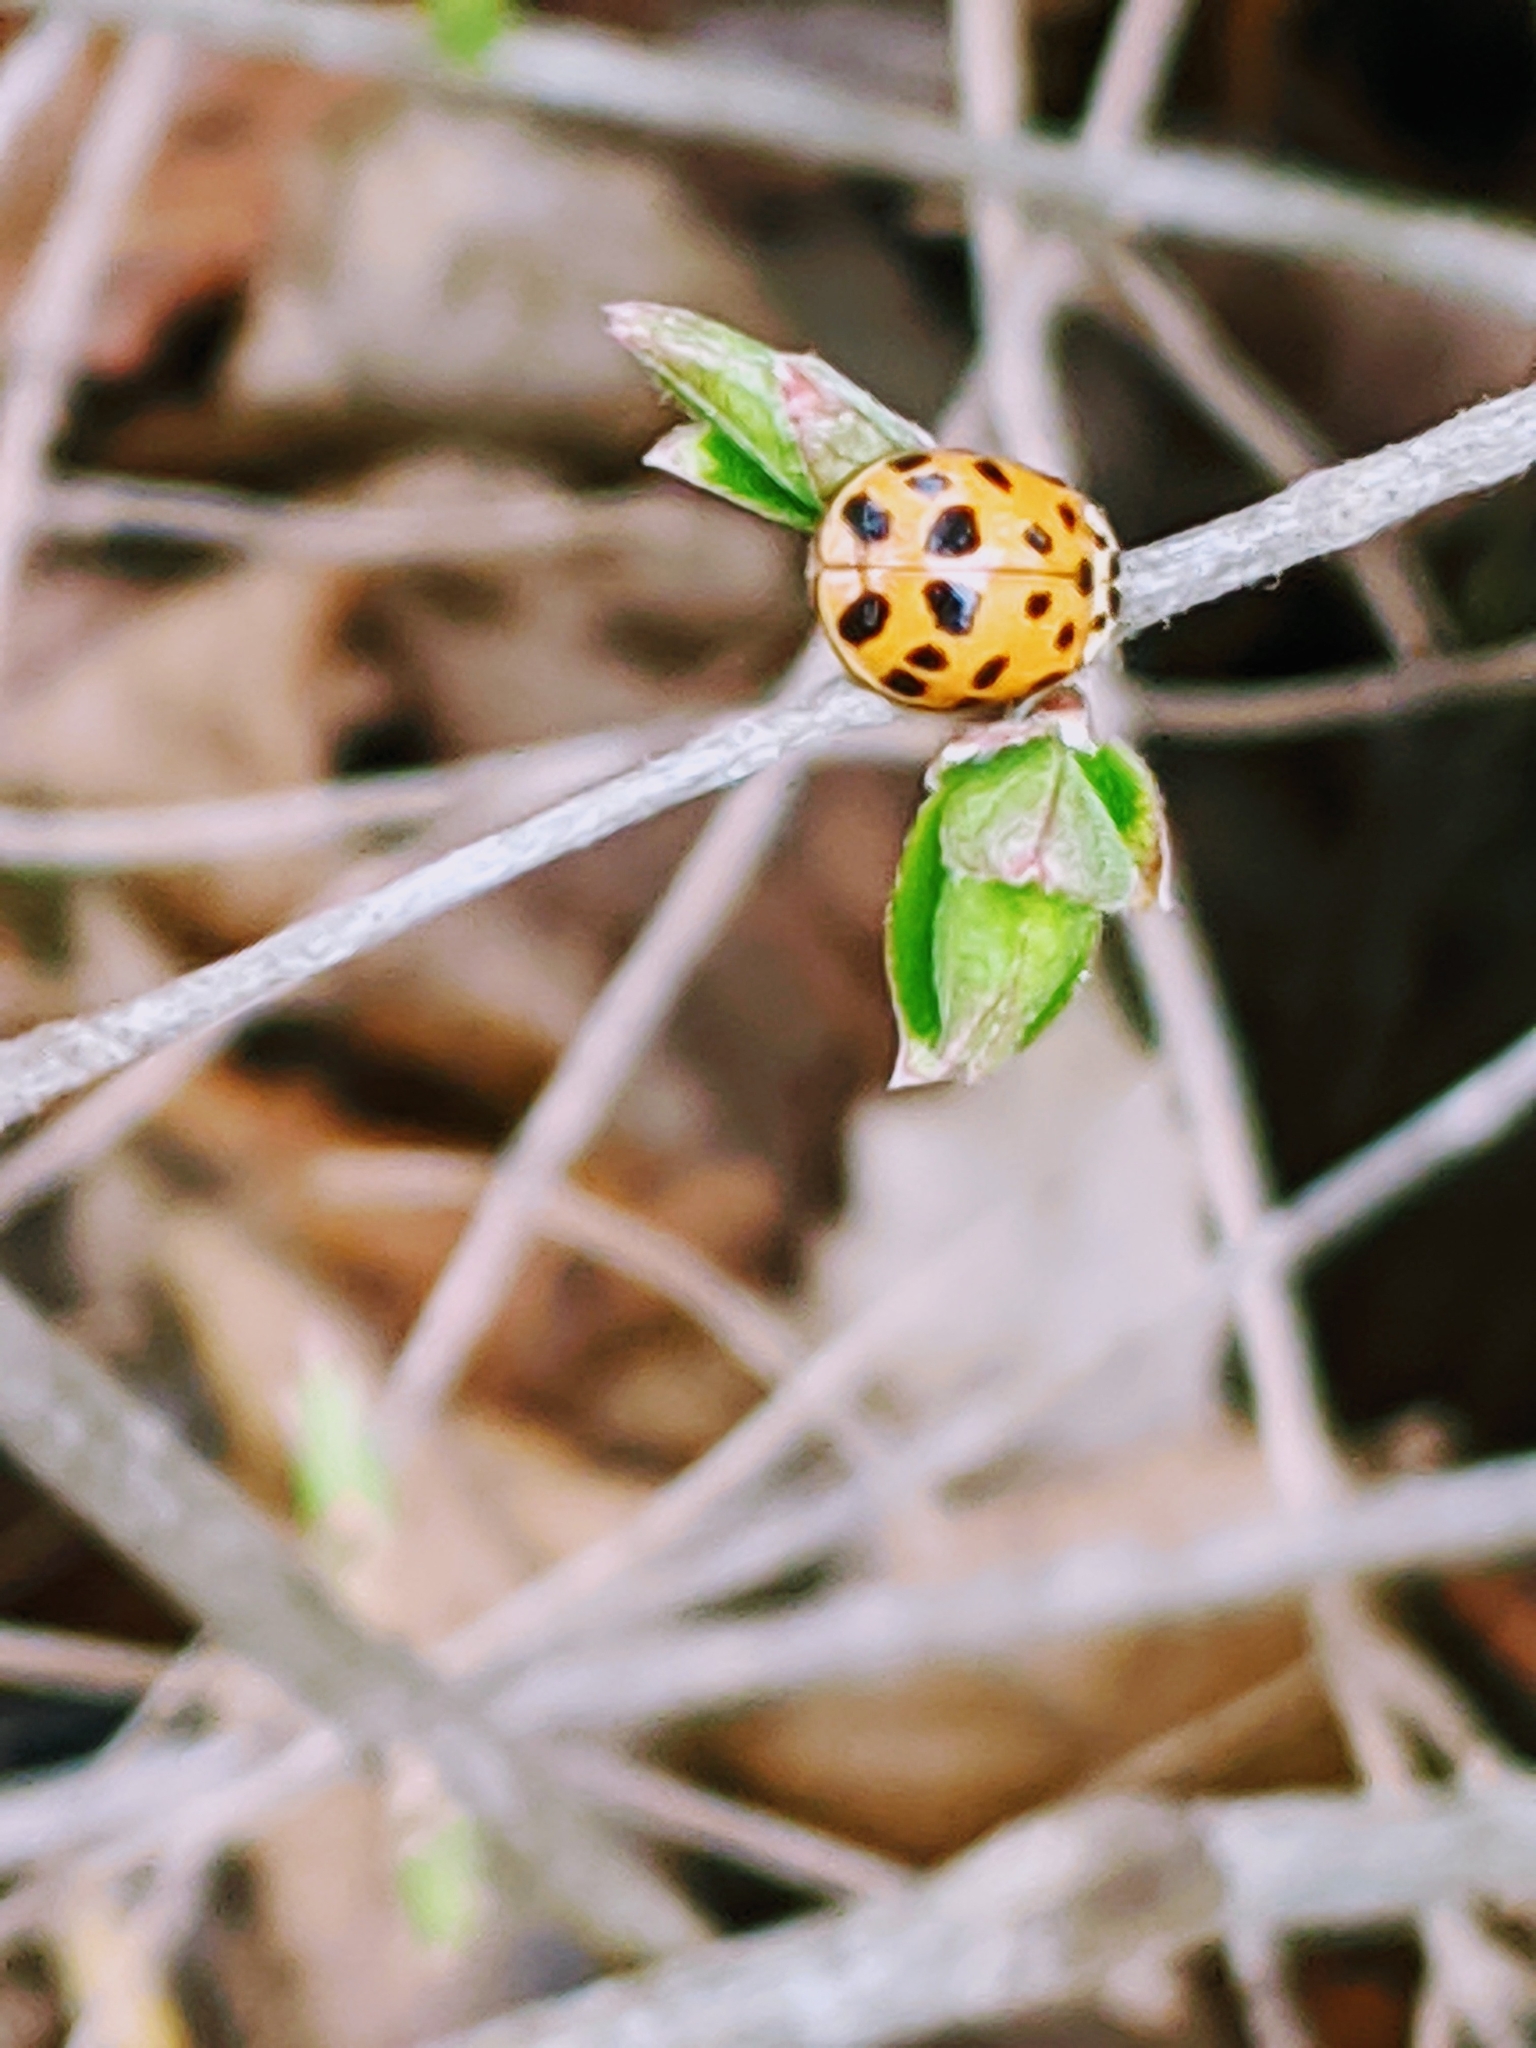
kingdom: Animalia
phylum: Arthropoda
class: Insecta
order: Coleoptera
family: Coccinellidae
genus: Harmonia
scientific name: Harmonia axyridis
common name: Harlequin ladybird
